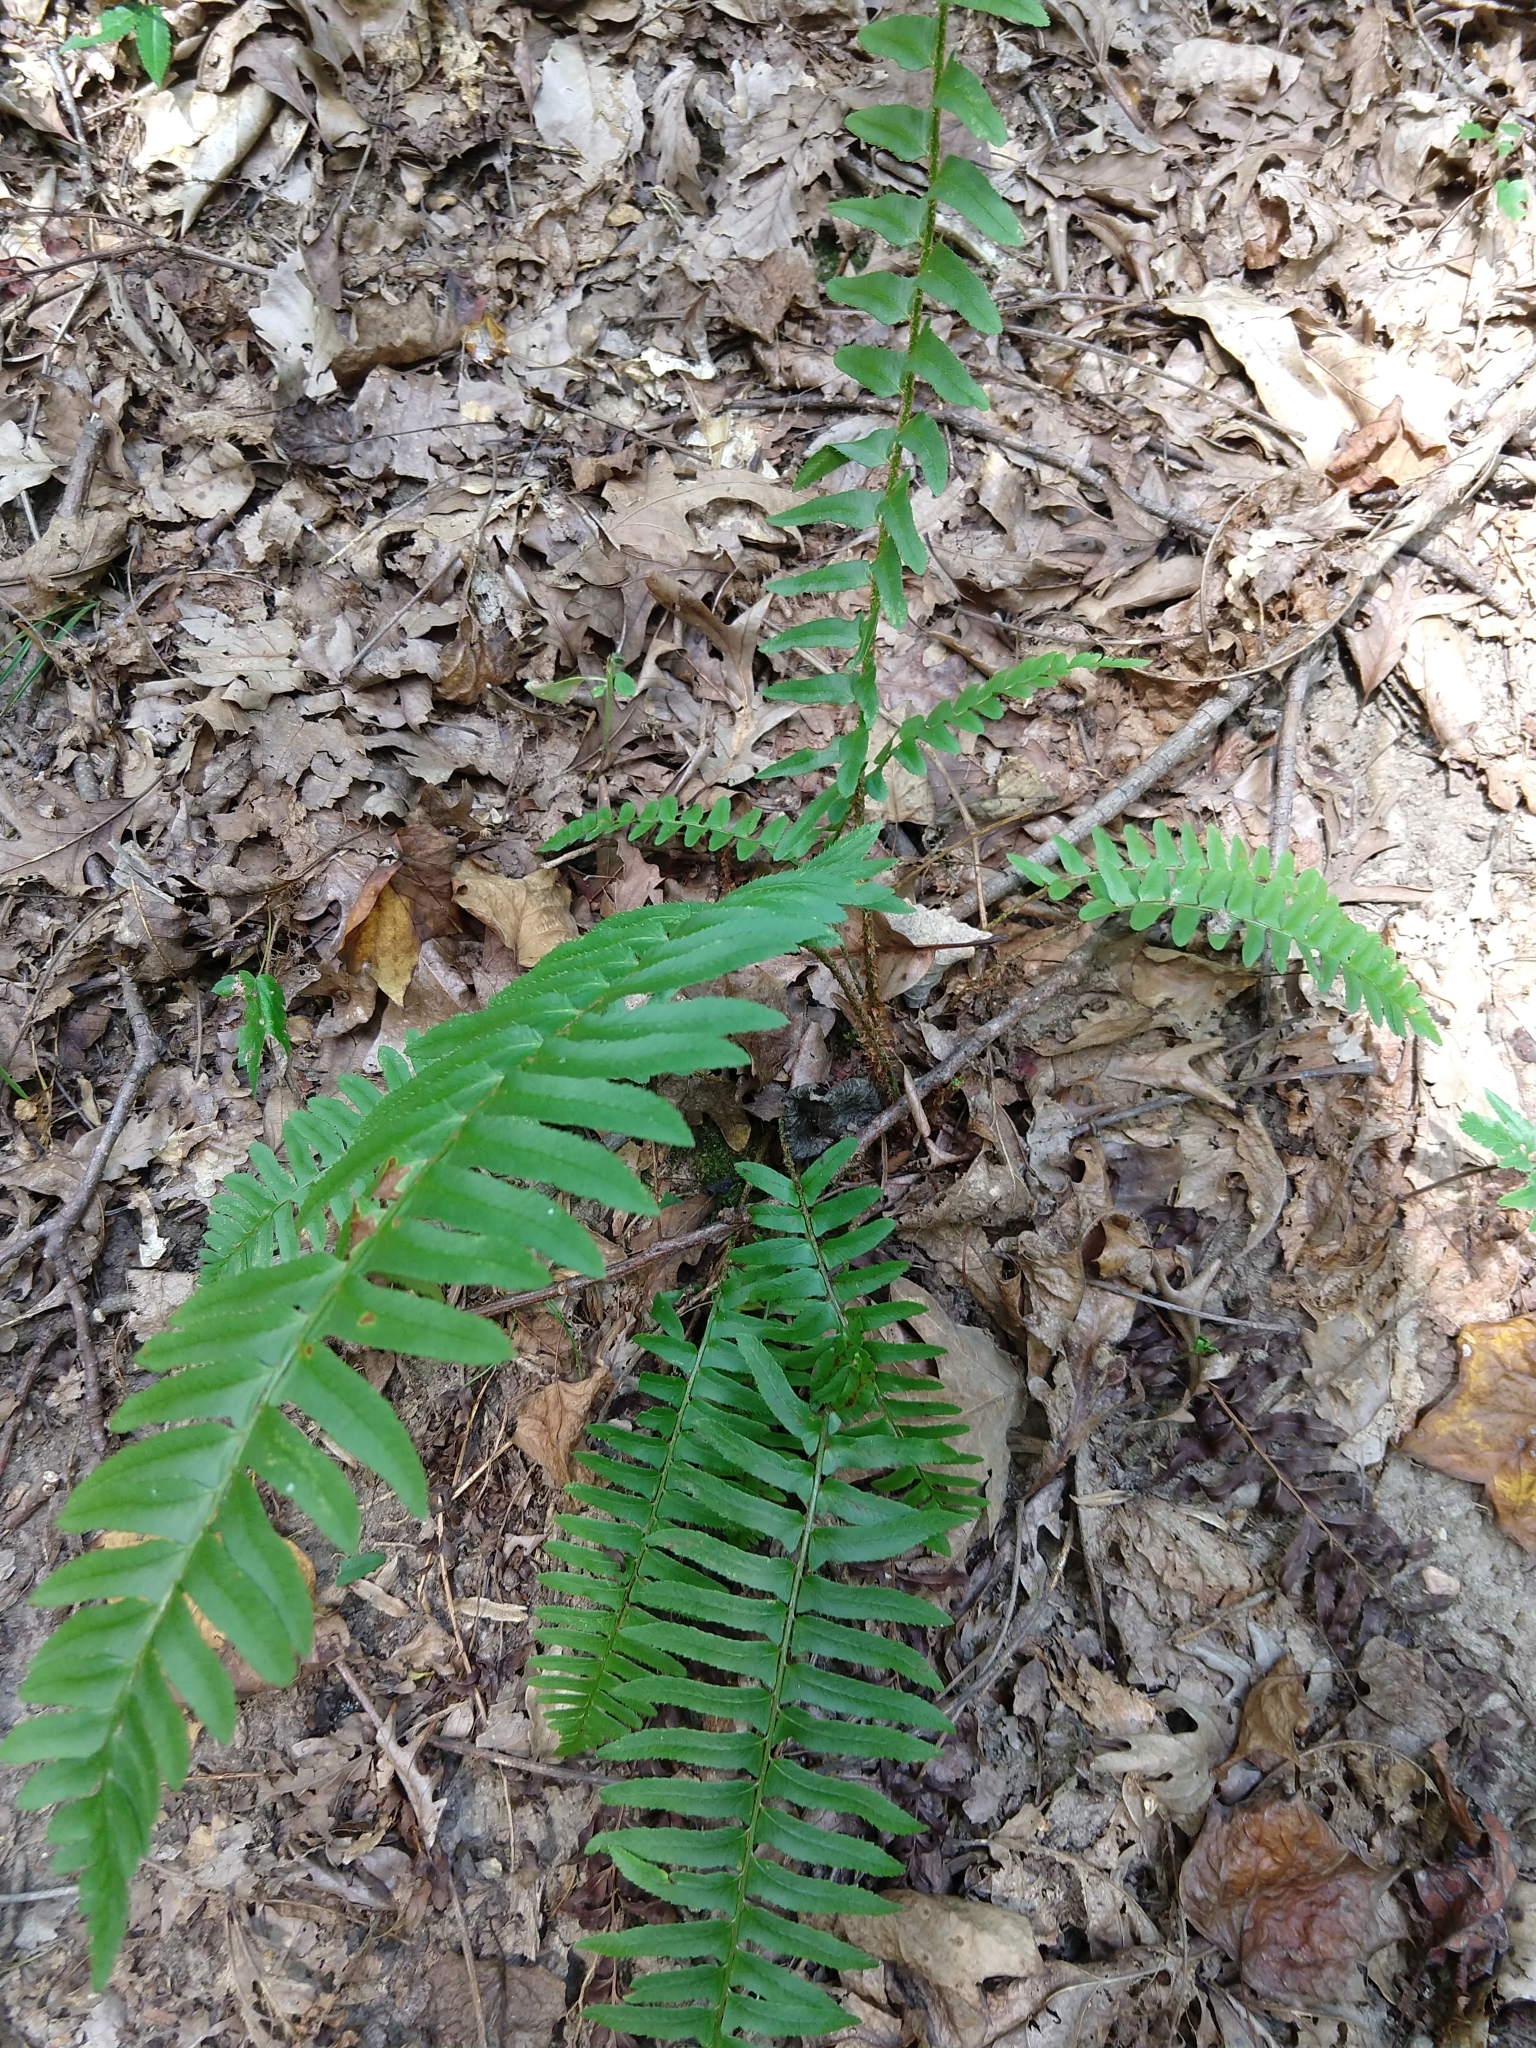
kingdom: Plantae
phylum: Tracheophyta
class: Polypodiopsida
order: Polypodiales
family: Dryopteridaceae
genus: Polystichum
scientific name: Polystichum acrostichoides
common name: Christmas fern
